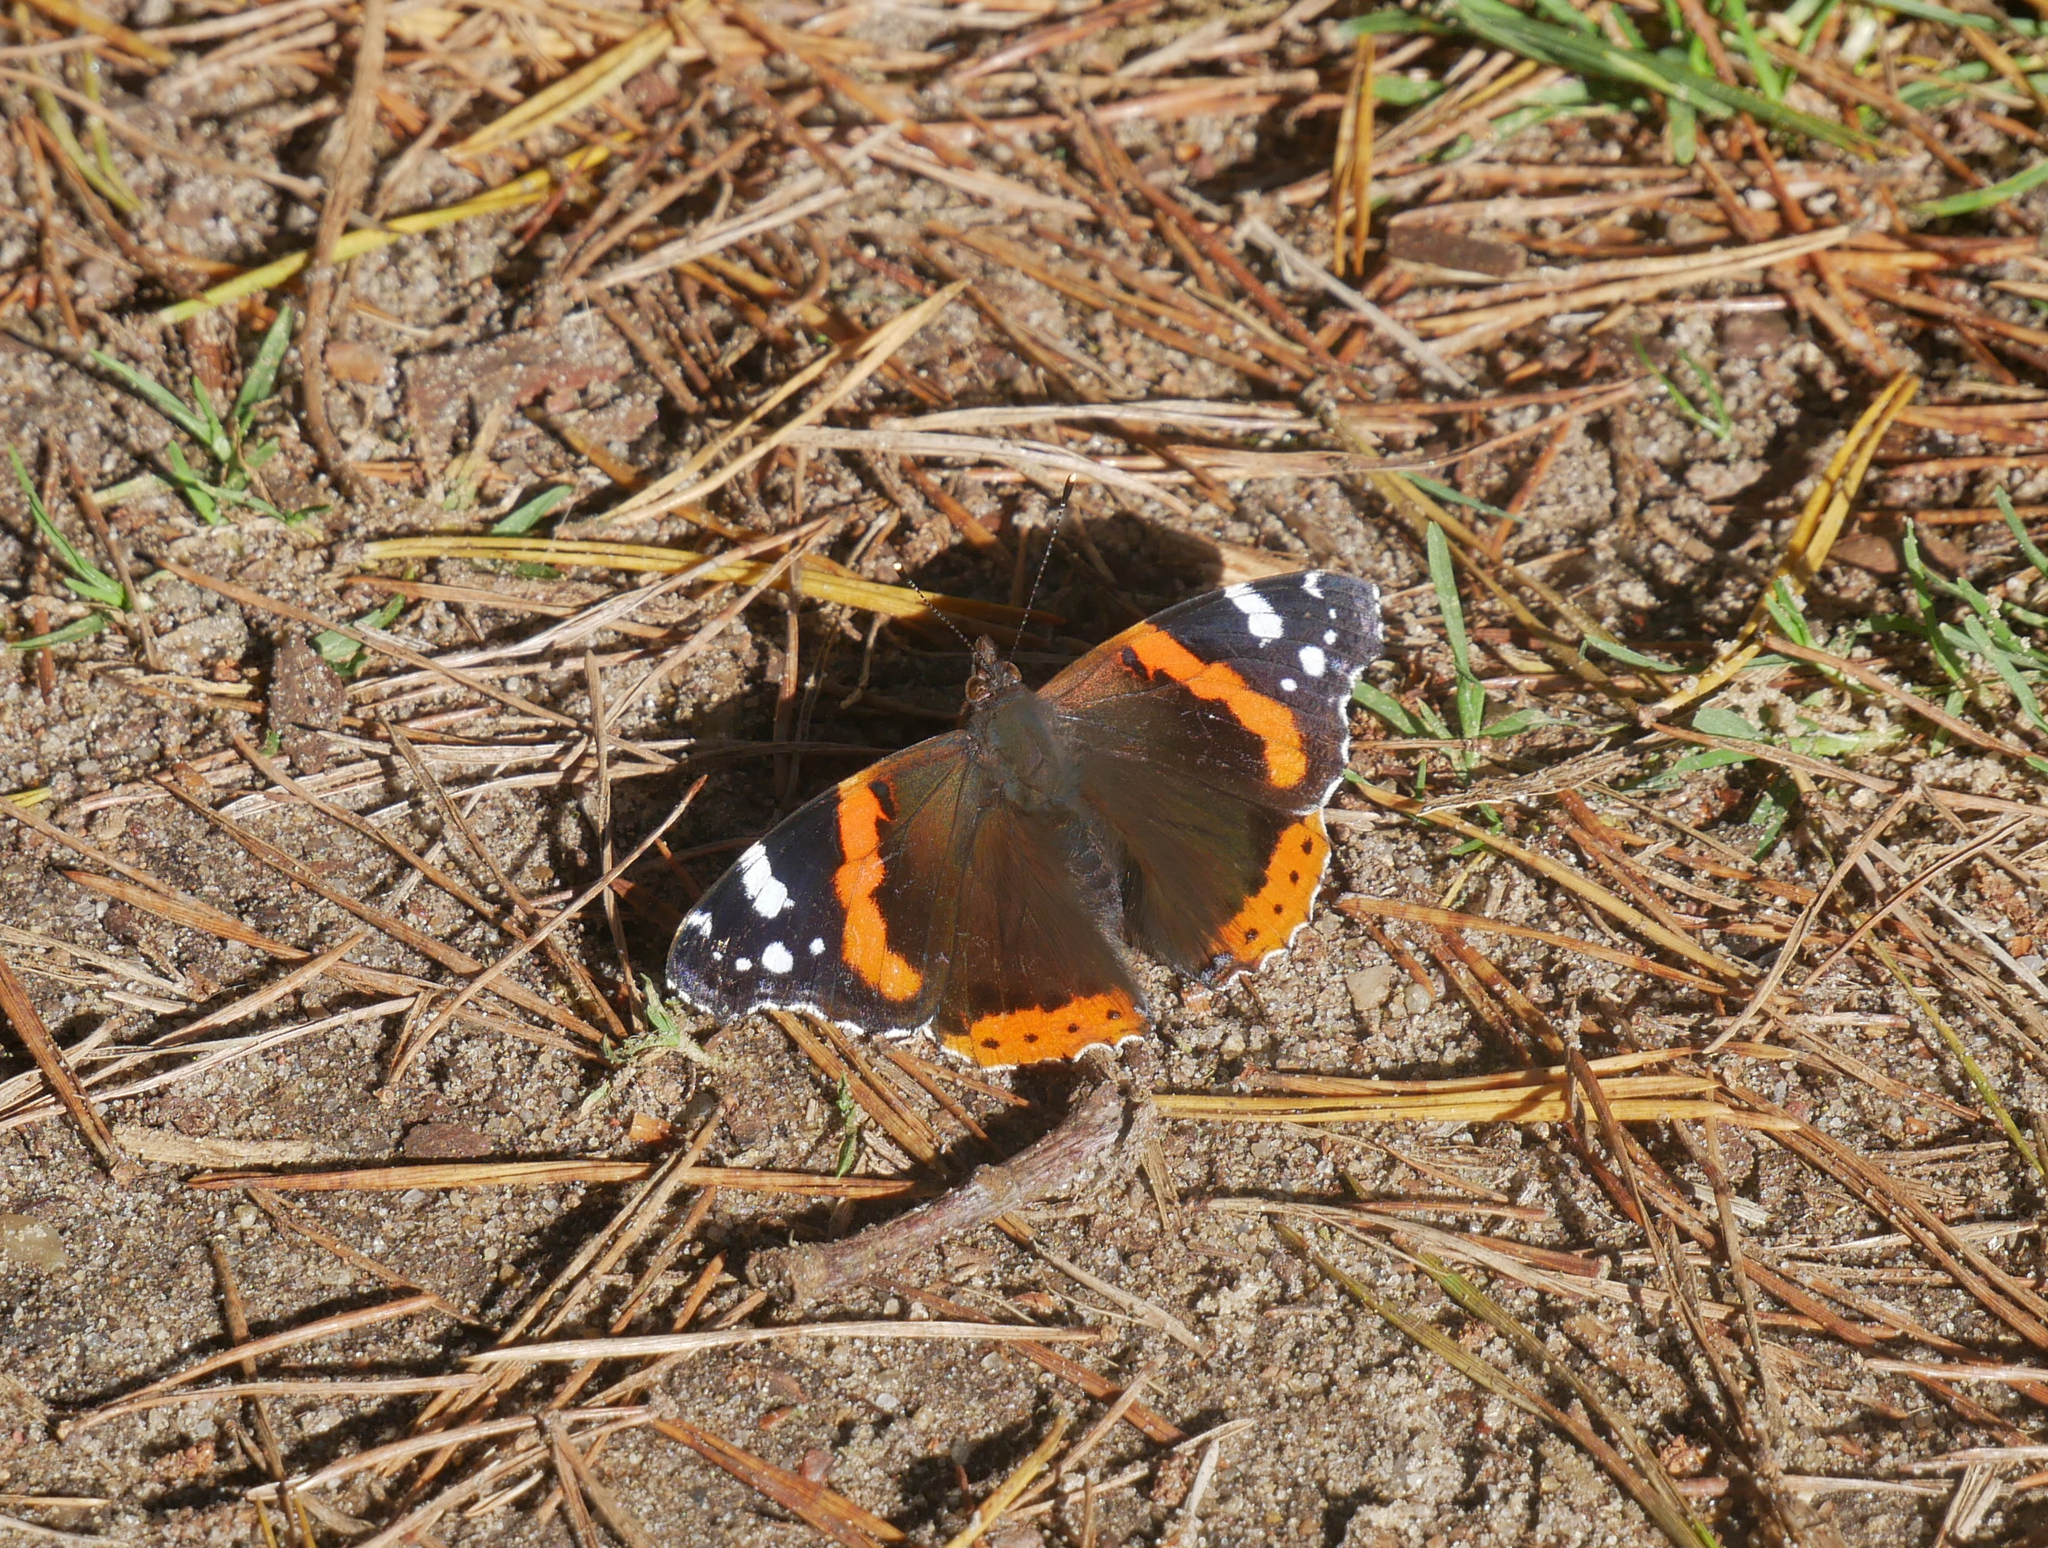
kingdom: Animalia
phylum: Arthropoda
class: Insecta
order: Lepidoptera
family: Nymphalidae
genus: Vanessa
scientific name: Vanessa atalanta
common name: Red admiral
